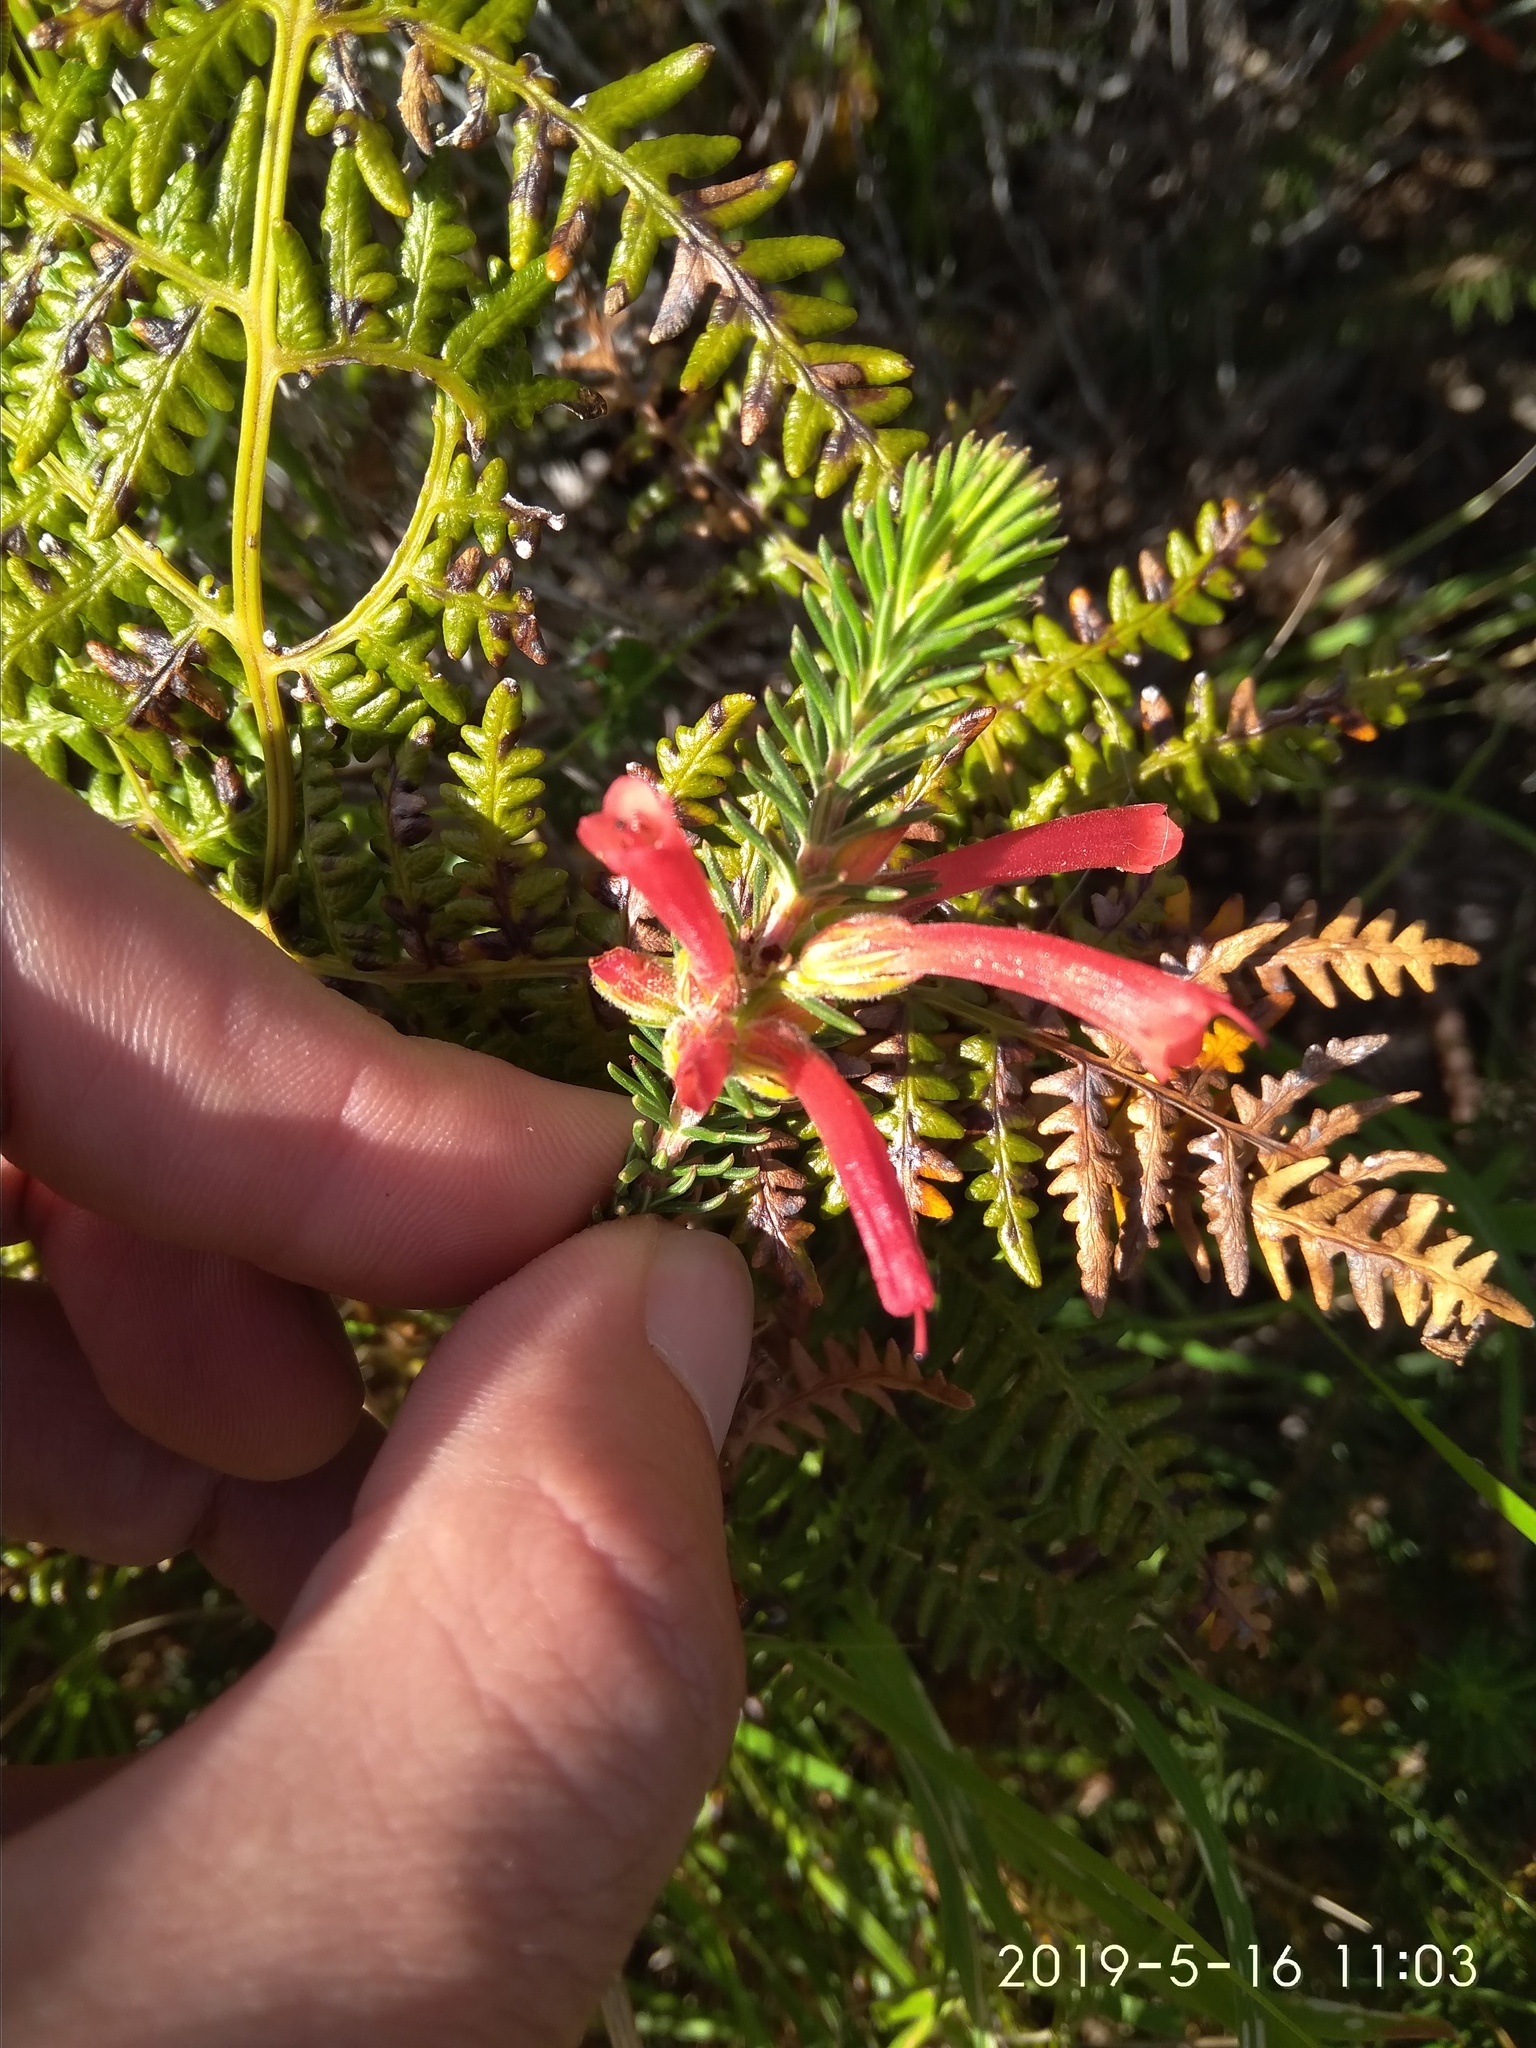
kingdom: Plantae
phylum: Tracheophyta
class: Magnoliopsida
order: Ericales
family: Ericaceae
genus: Erica
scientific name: Erica abietina
